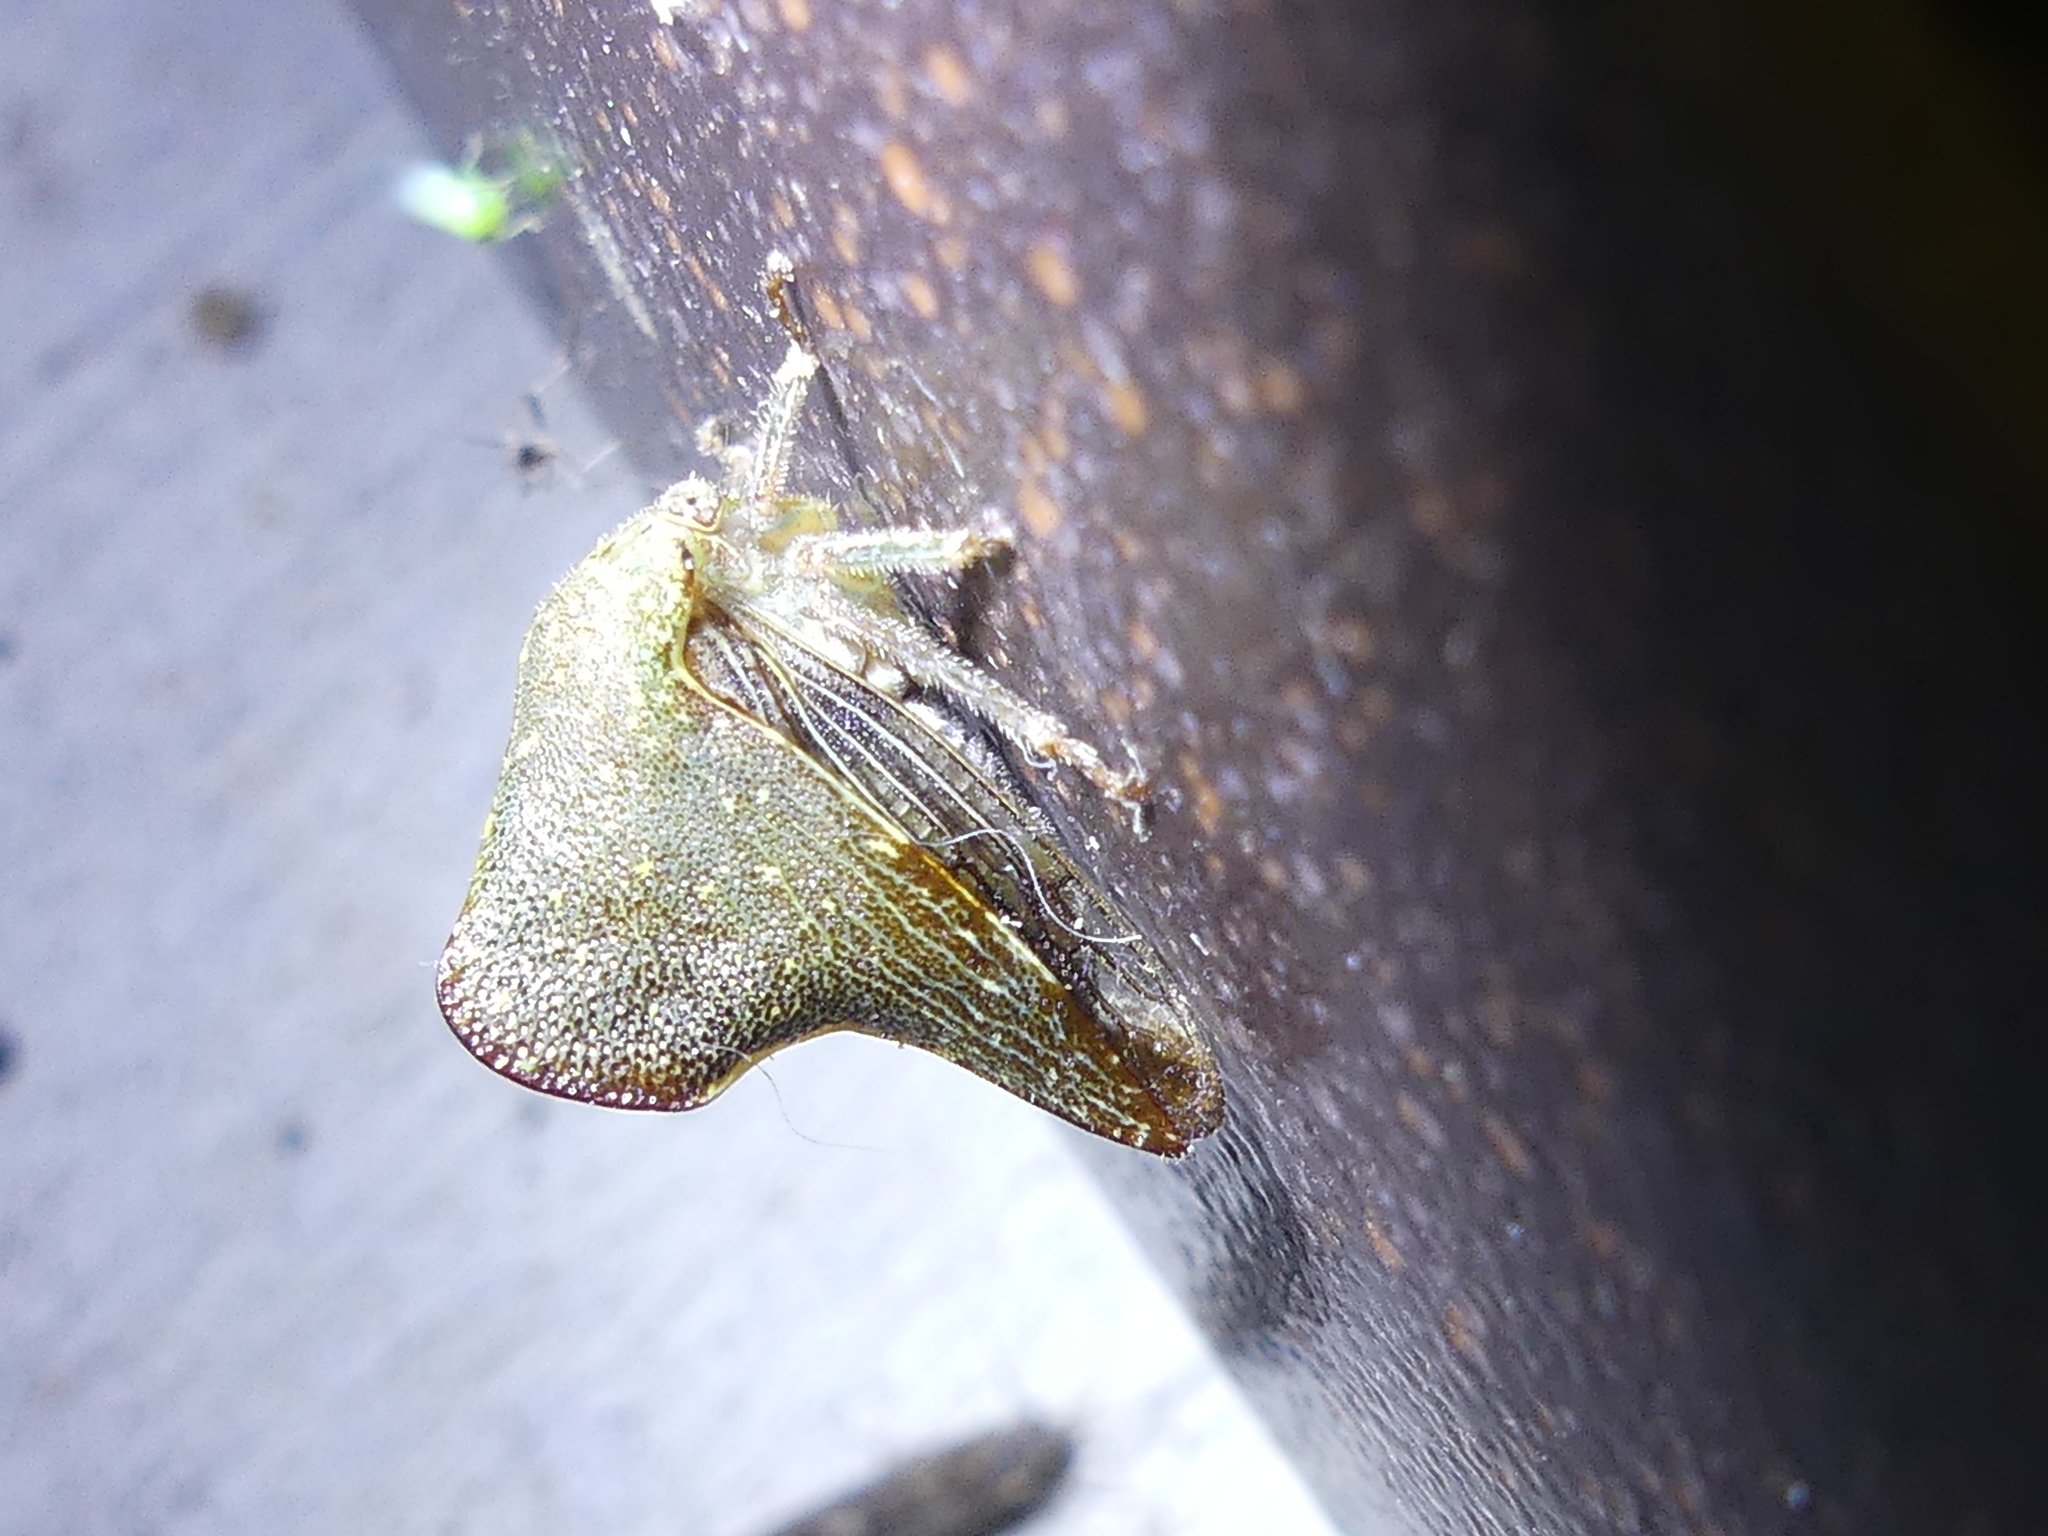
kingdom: Animalia
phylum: Arthropoda
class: Insecta
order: Hemiptera
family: Membracidae
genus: Telamona
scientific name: Telamona monticola
